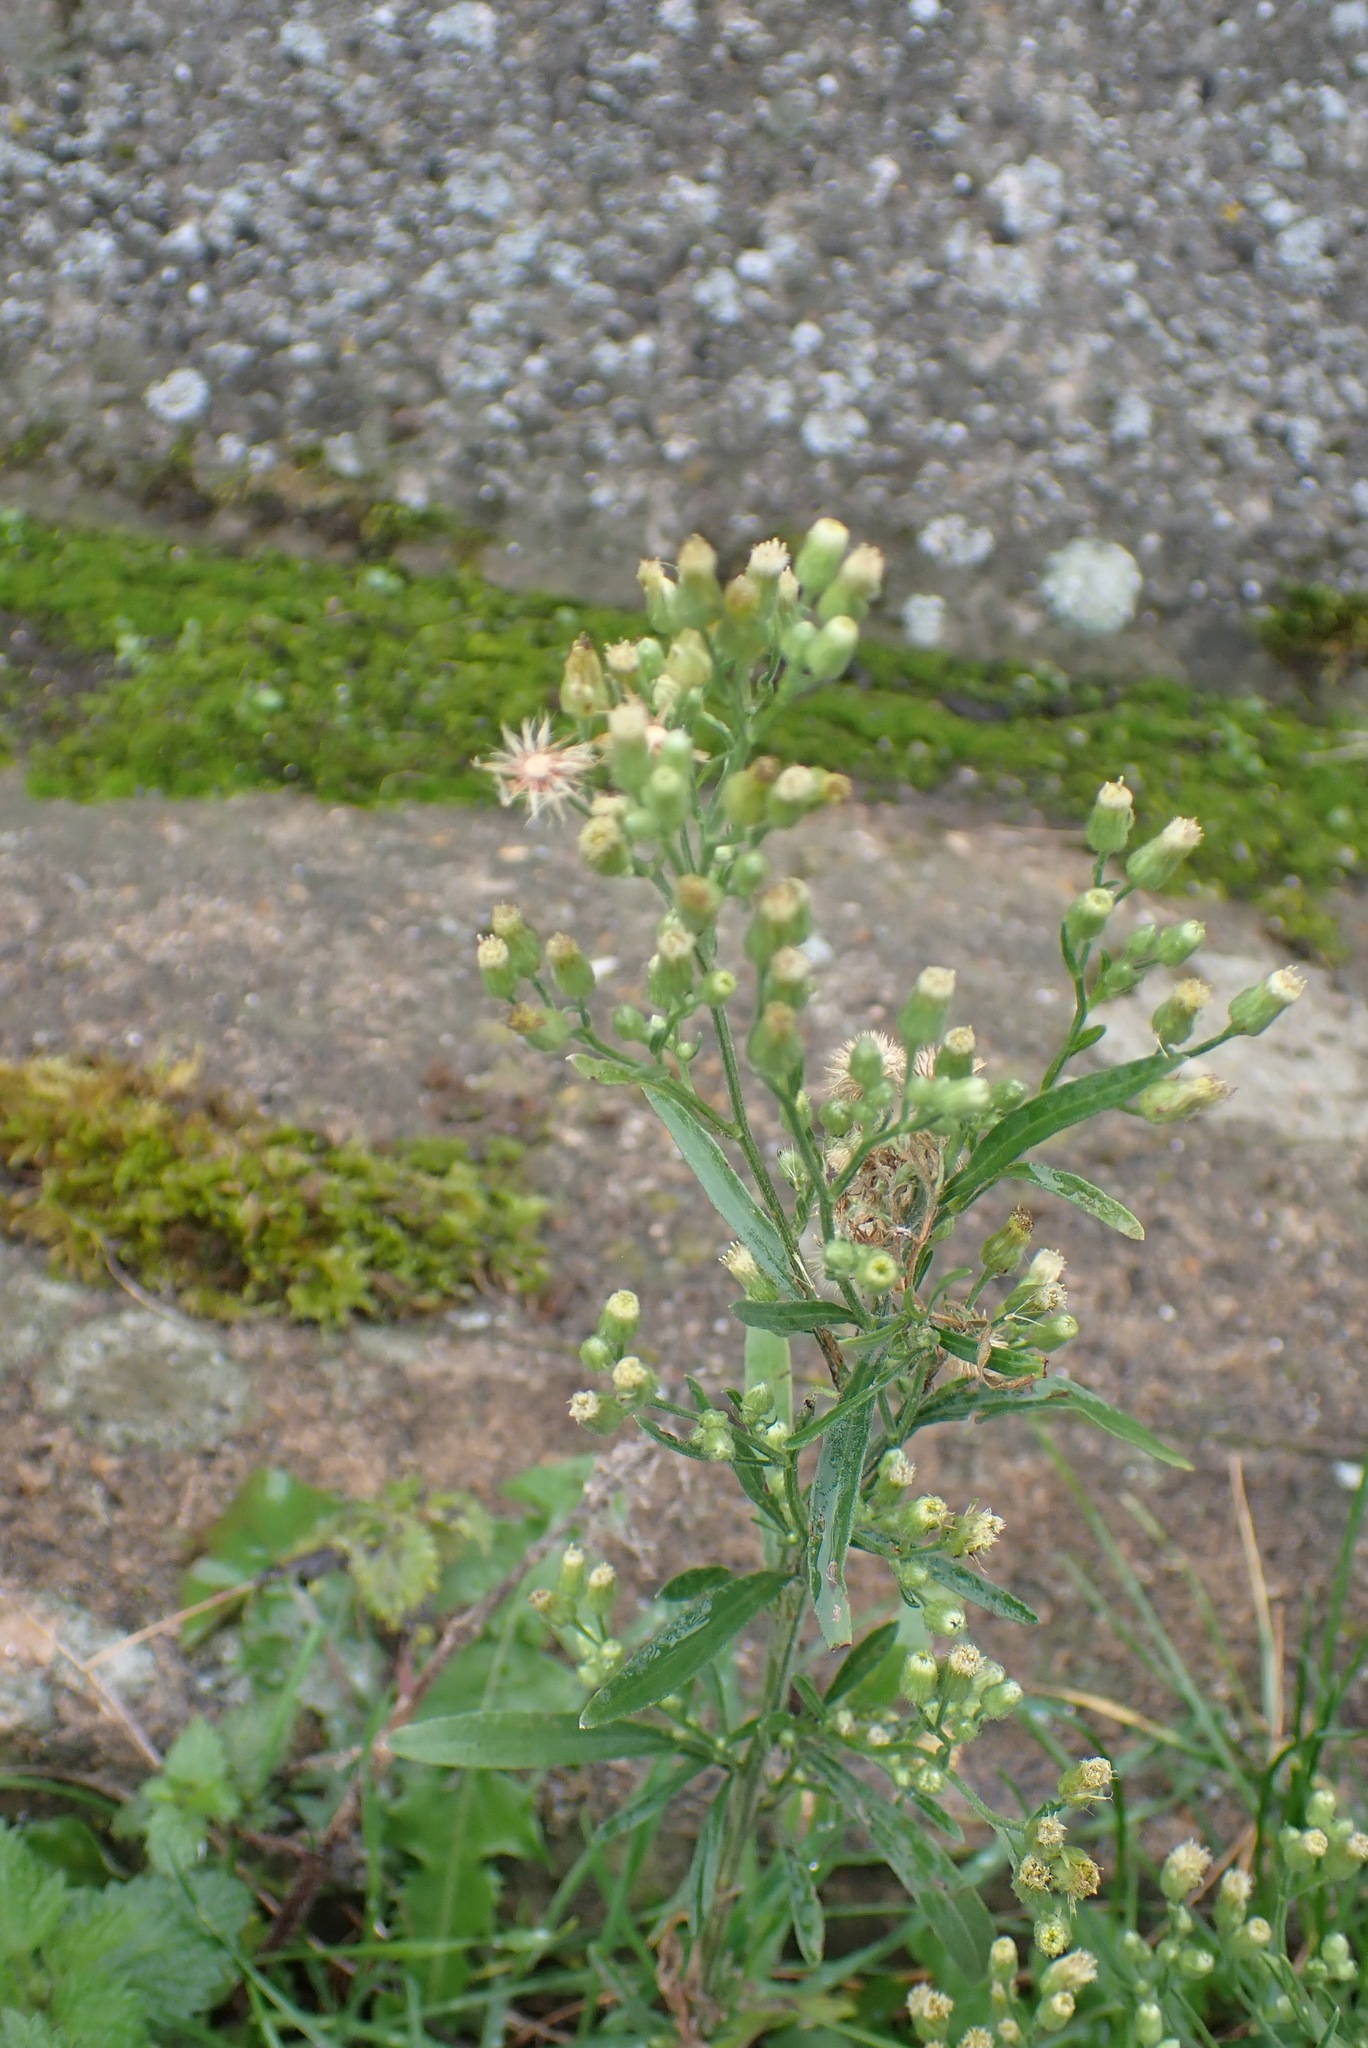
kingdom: Plantae
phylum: Tracheophyta
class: Magnoliopsida
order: Asterales
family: Asteraceae
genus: Erigeron
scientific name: Erigeron sumatrensis
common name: Daisy
